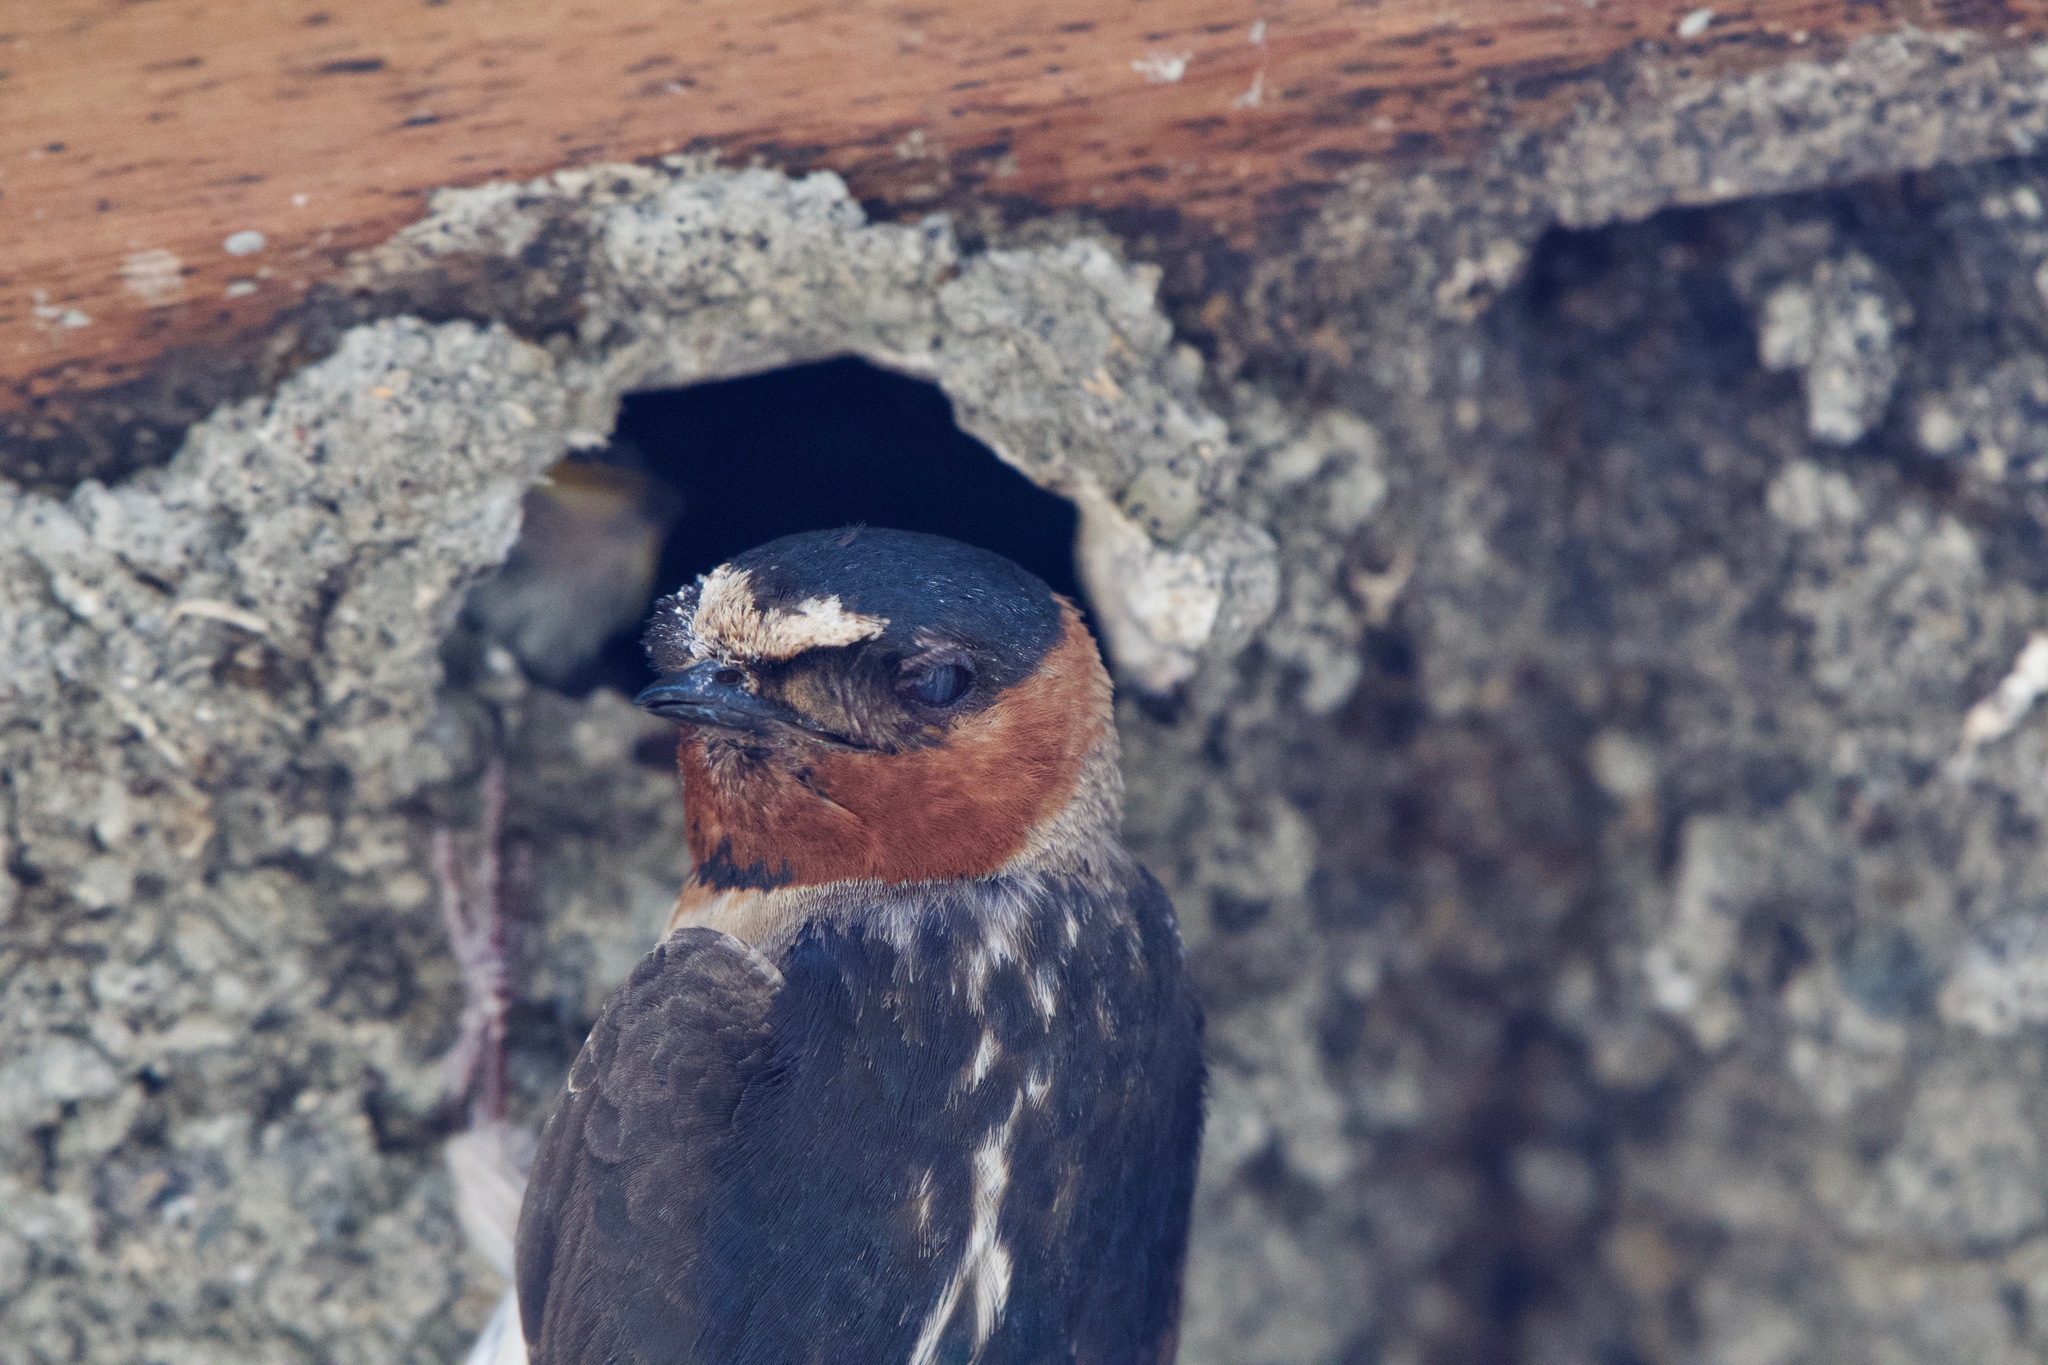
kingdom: Animalia
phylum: Chordata
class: Aves
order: Passeriformes
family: Hirundinidae
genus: Petrochelidon
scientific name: Petrochelidon pyrrhonota
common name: American cliff swallow
